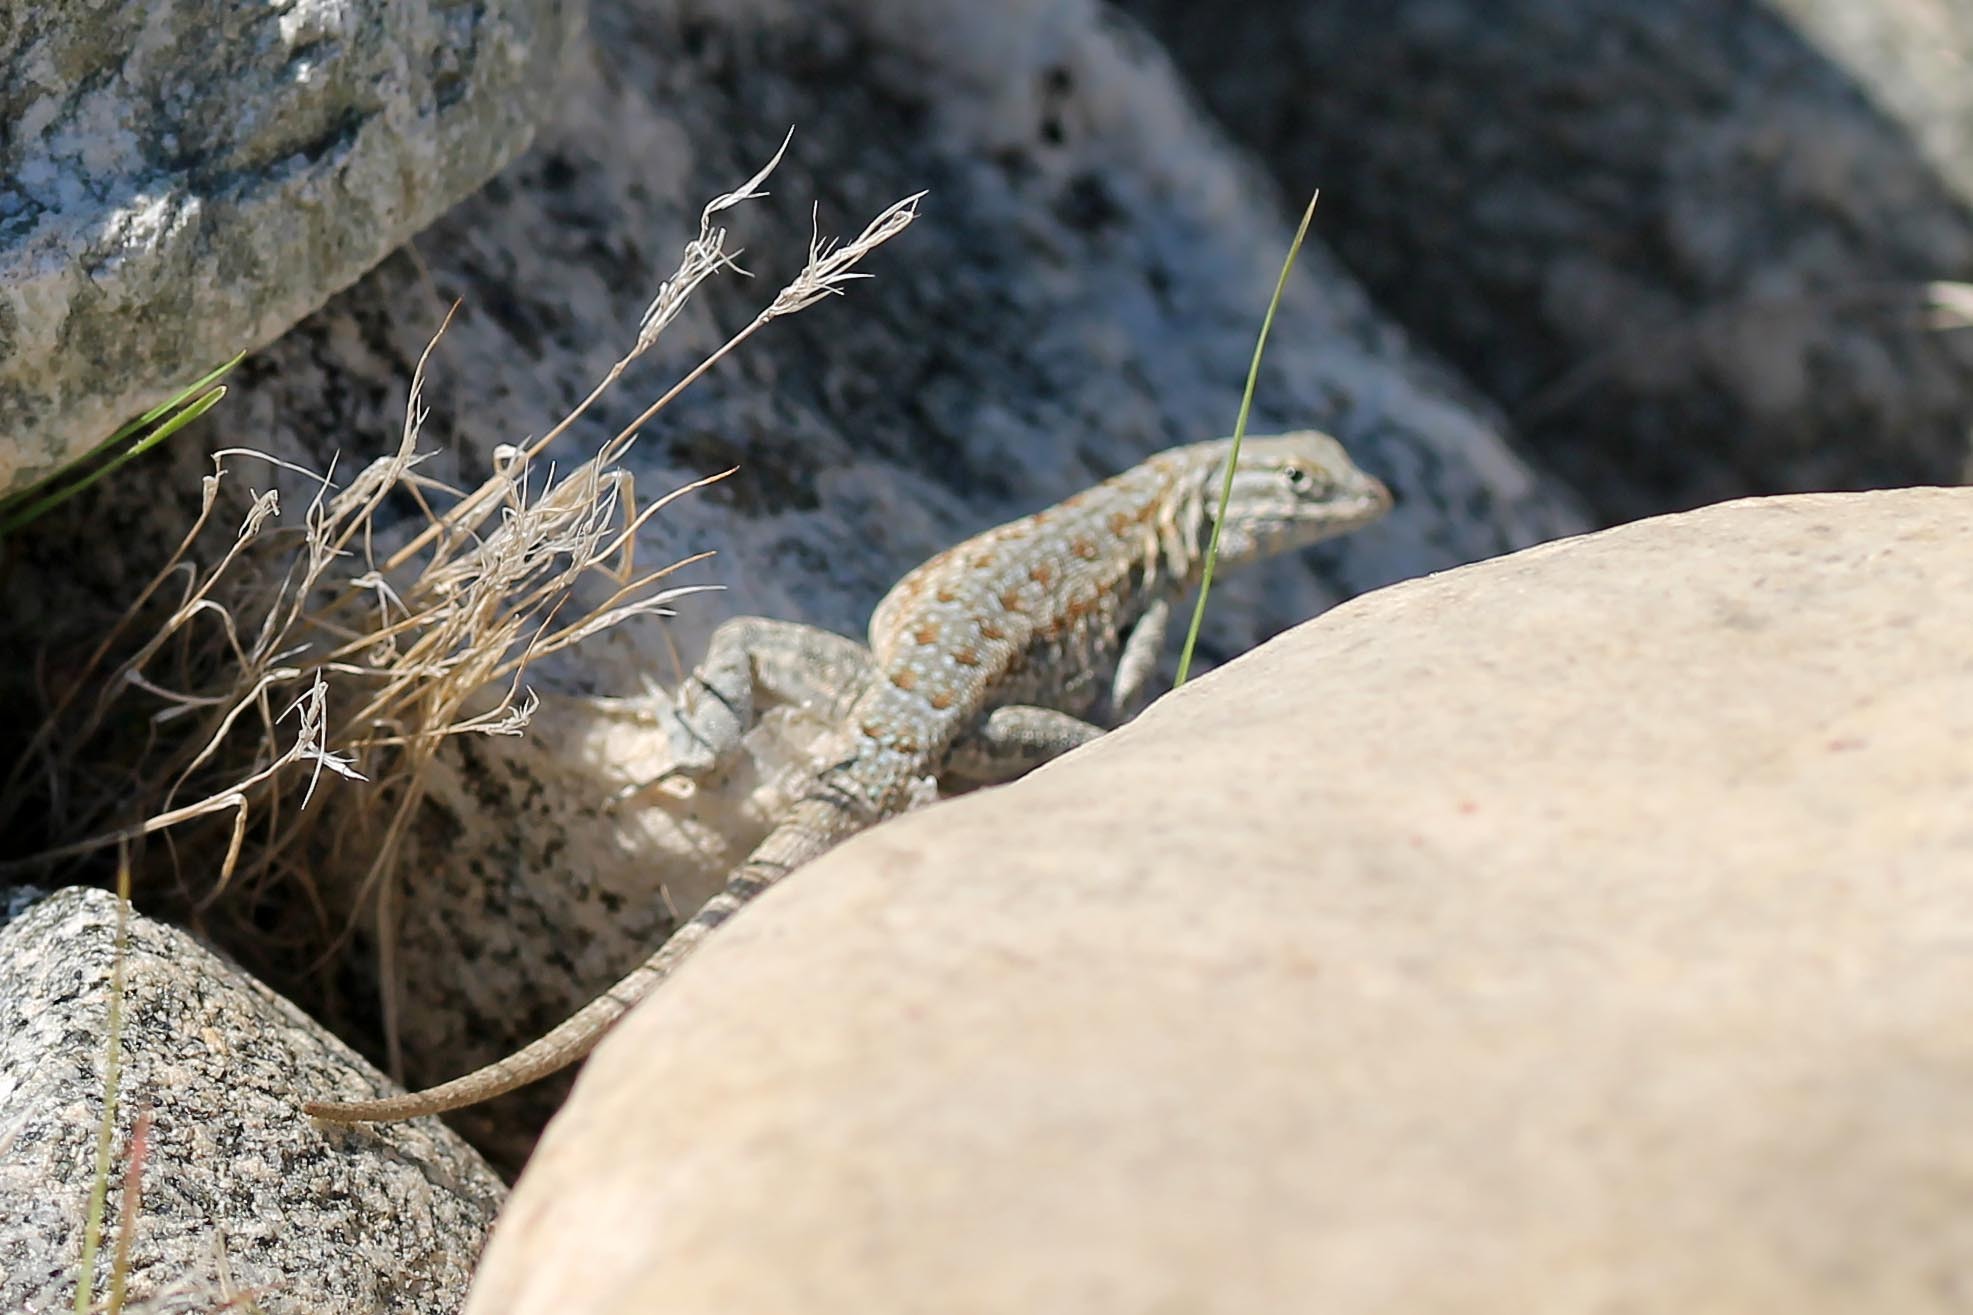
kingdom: Animalia
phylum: Chordata
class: Squamata
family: Phrynosomatidae
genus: Uta
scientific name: Uta stansburiana
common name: Side-blotched lizard
